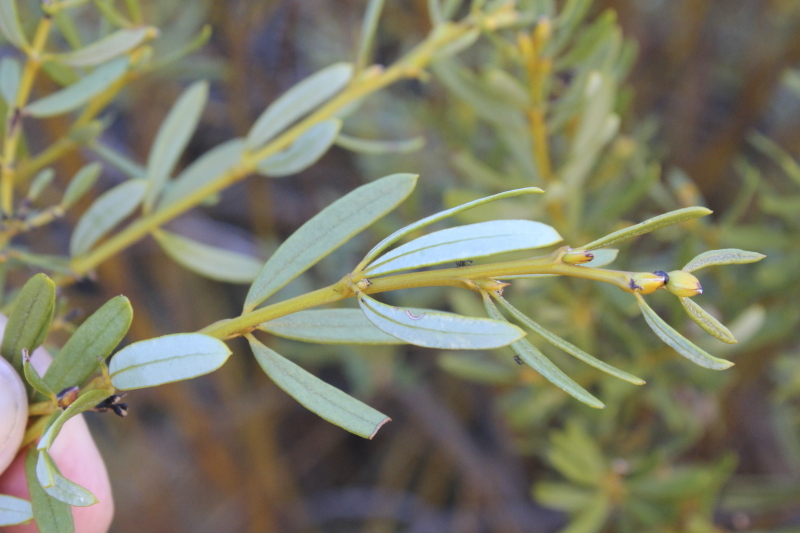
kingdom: Plantae
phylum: Tracheophyta
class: Magnoliopsida
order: Fabales
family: Fabaceae
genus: Cyclopia
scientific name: Cyclopia intermedia
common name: Mountain tea
